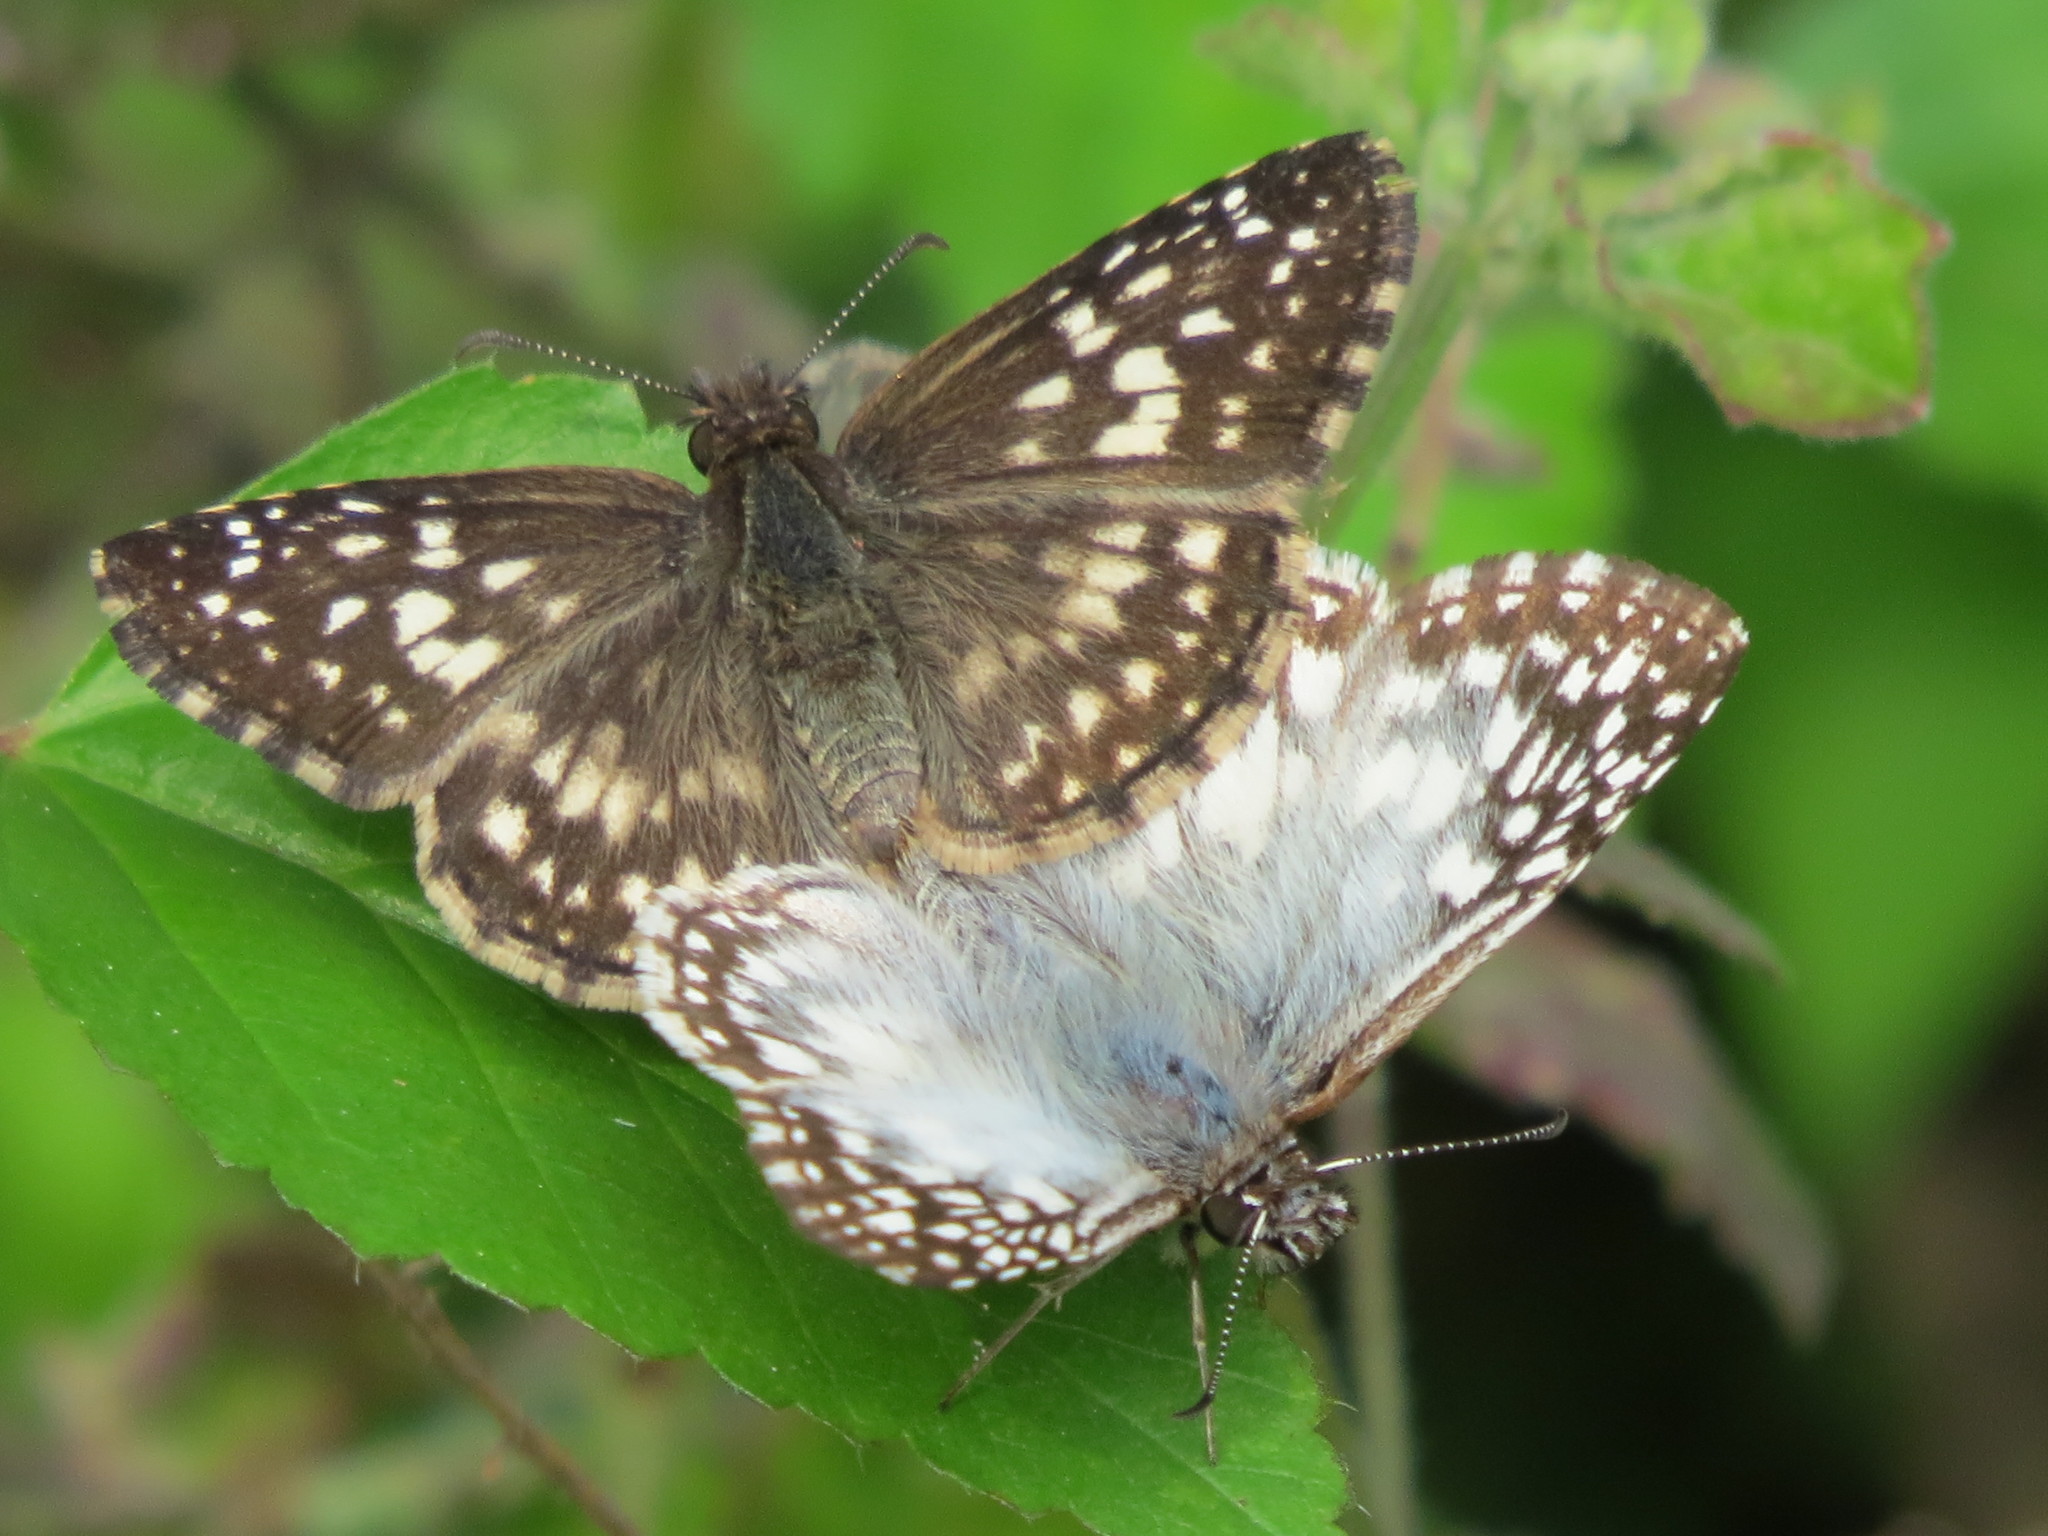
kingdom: Animalia
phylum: Arthropoda
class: Insecta
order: Lepidoptera
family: Hesperiidae
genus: Pyrgus
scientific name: Pyrgus oileus
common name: Tropical checkered-skipper
